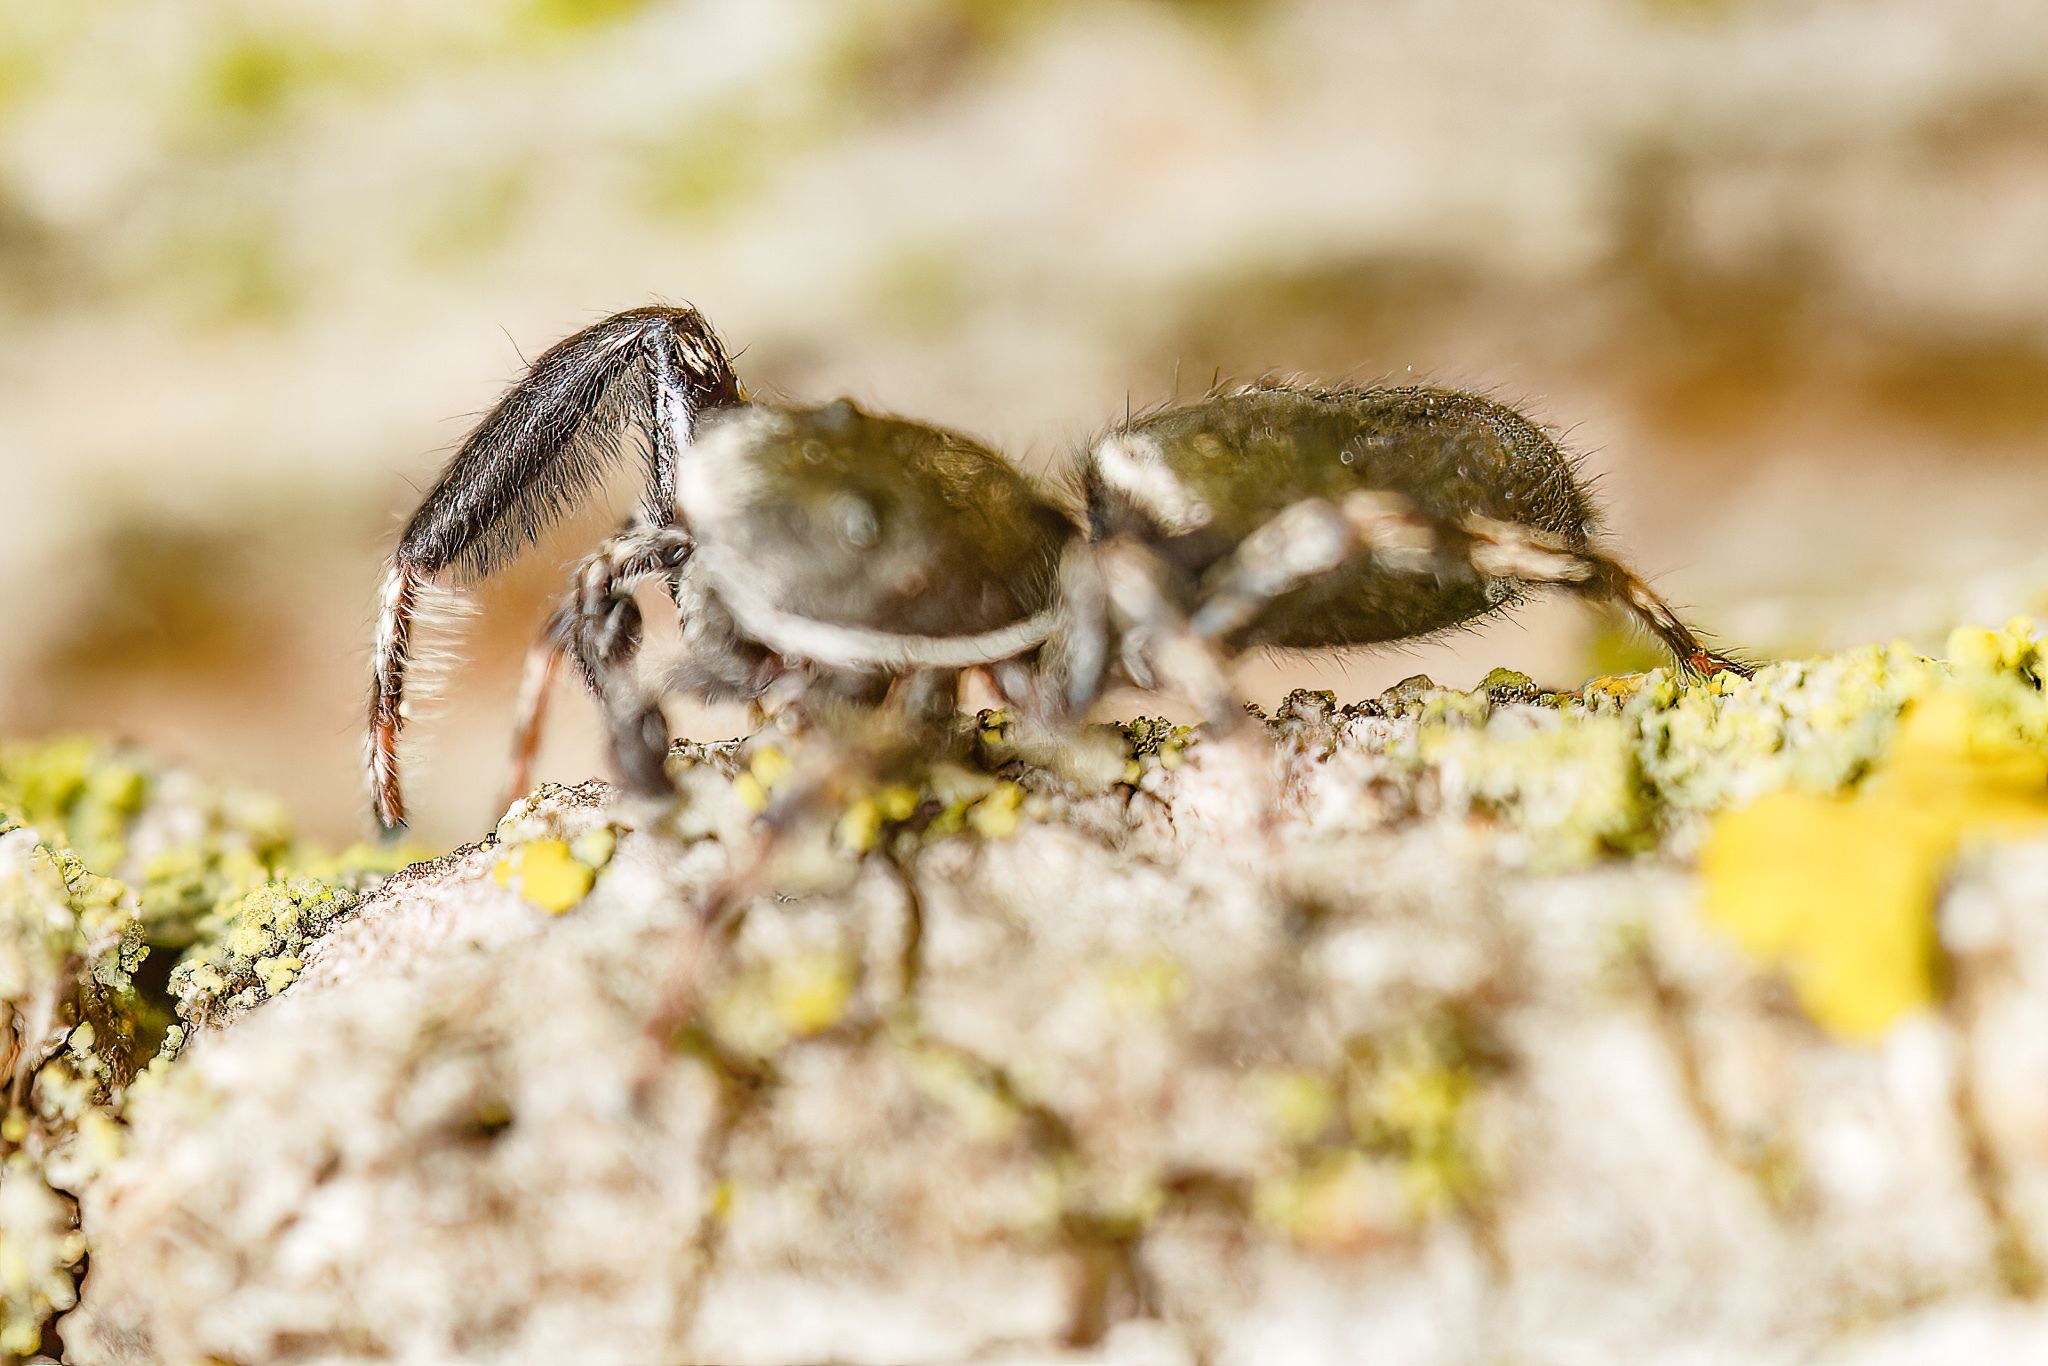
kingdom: Animalia
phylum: Arthropoda
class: Arachnida
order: Araneae
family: Salticidae
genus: Tutelina
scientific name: Tutelina harti
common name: Hart's jumping spider
